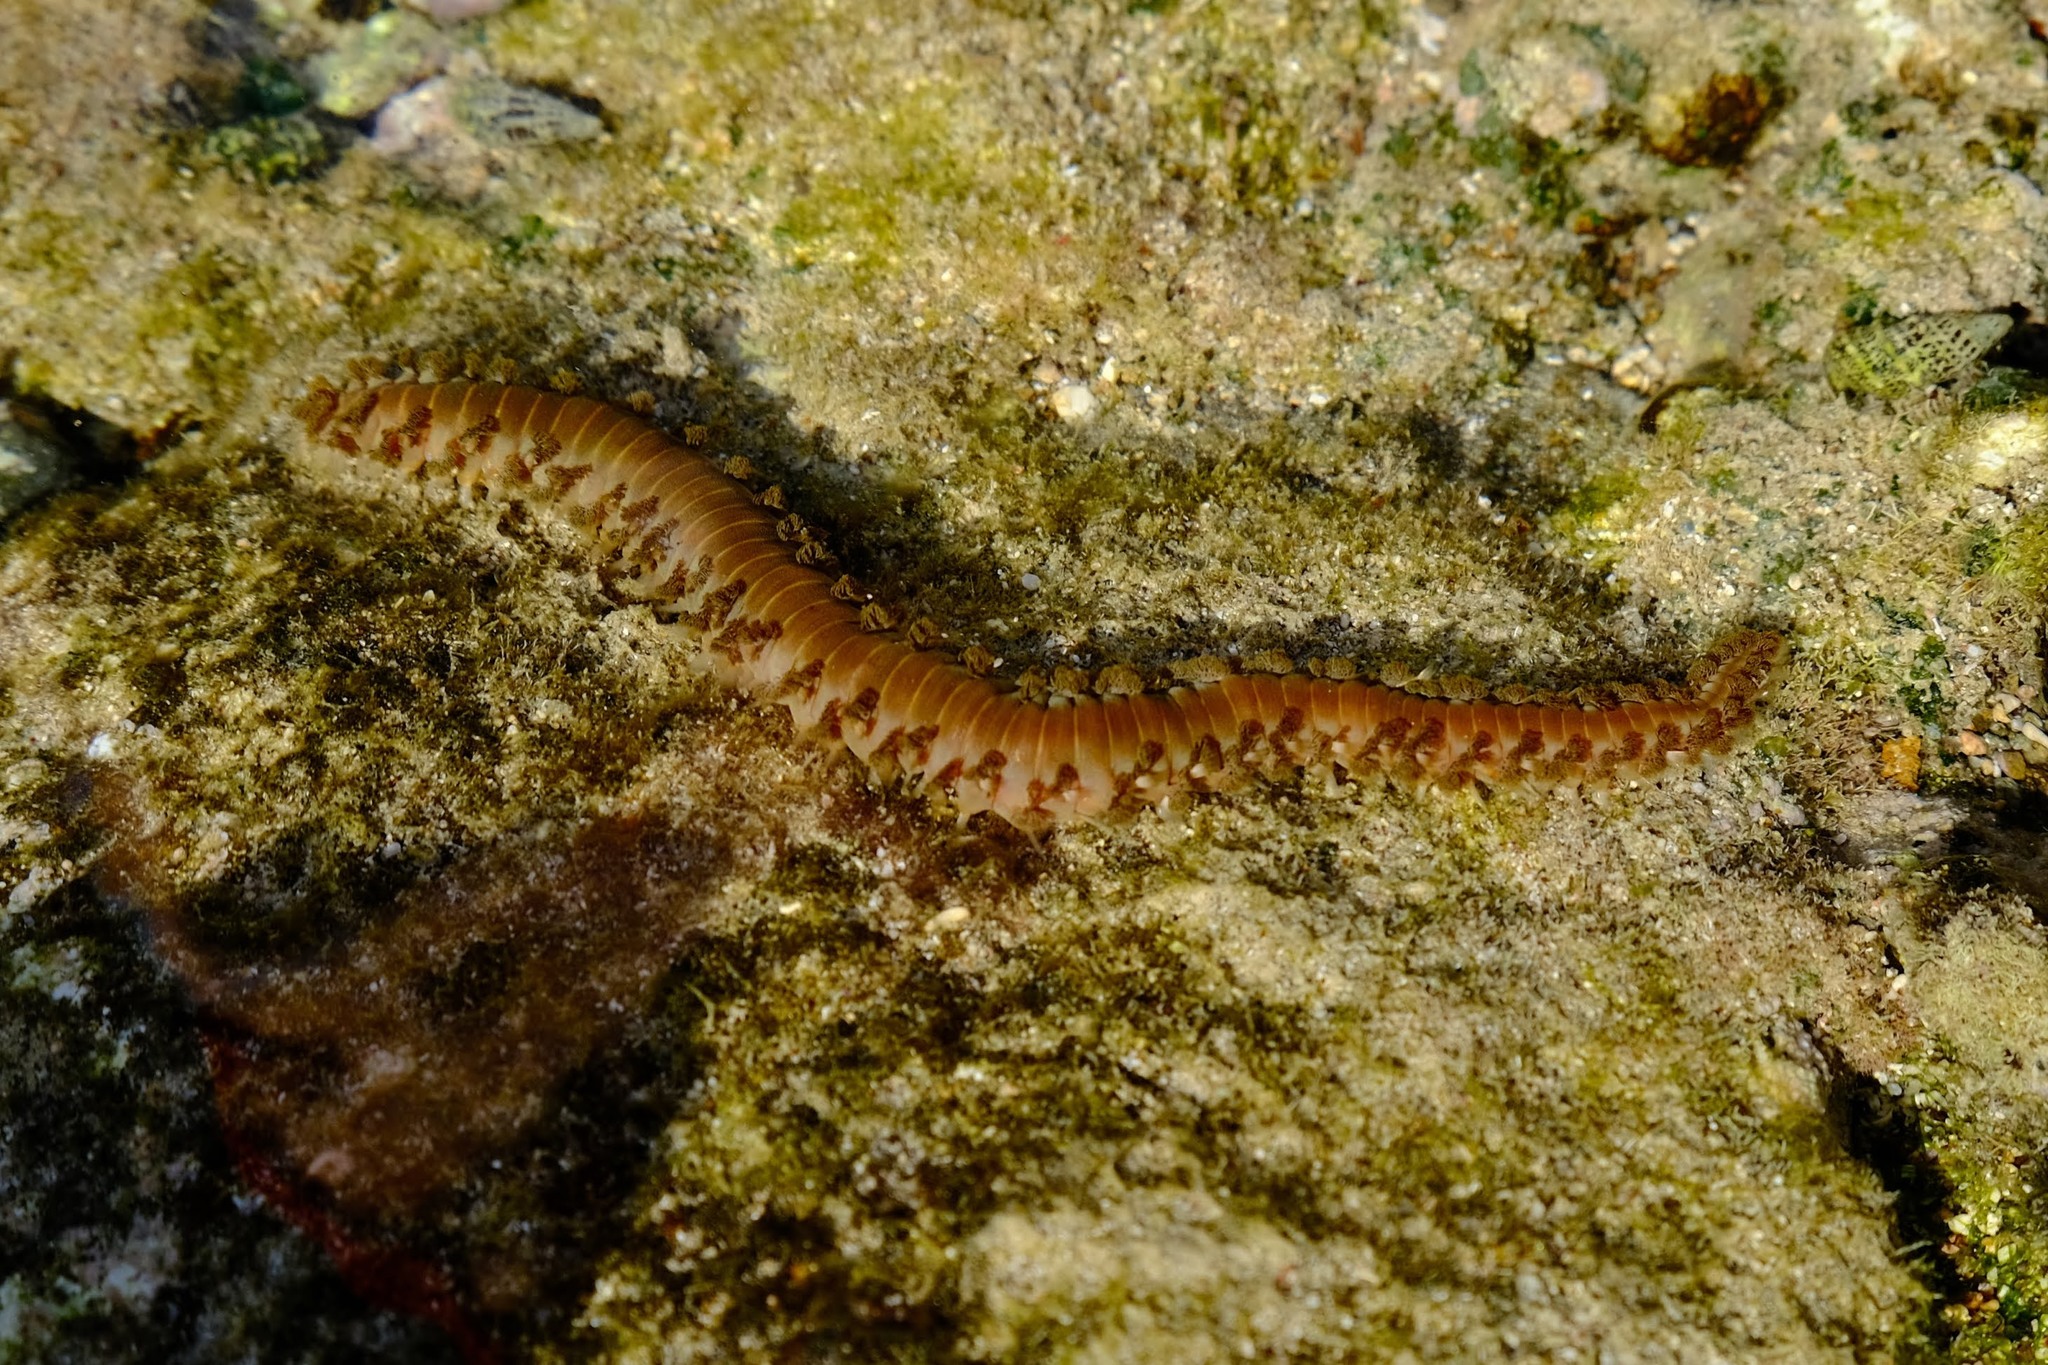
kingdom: Animalia
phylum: Annelida
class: Polychaeta
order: Amphinomida
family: Amphinomidae
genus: Hermodice
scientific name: Hermodice carunculata
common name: Bearded fireworm
